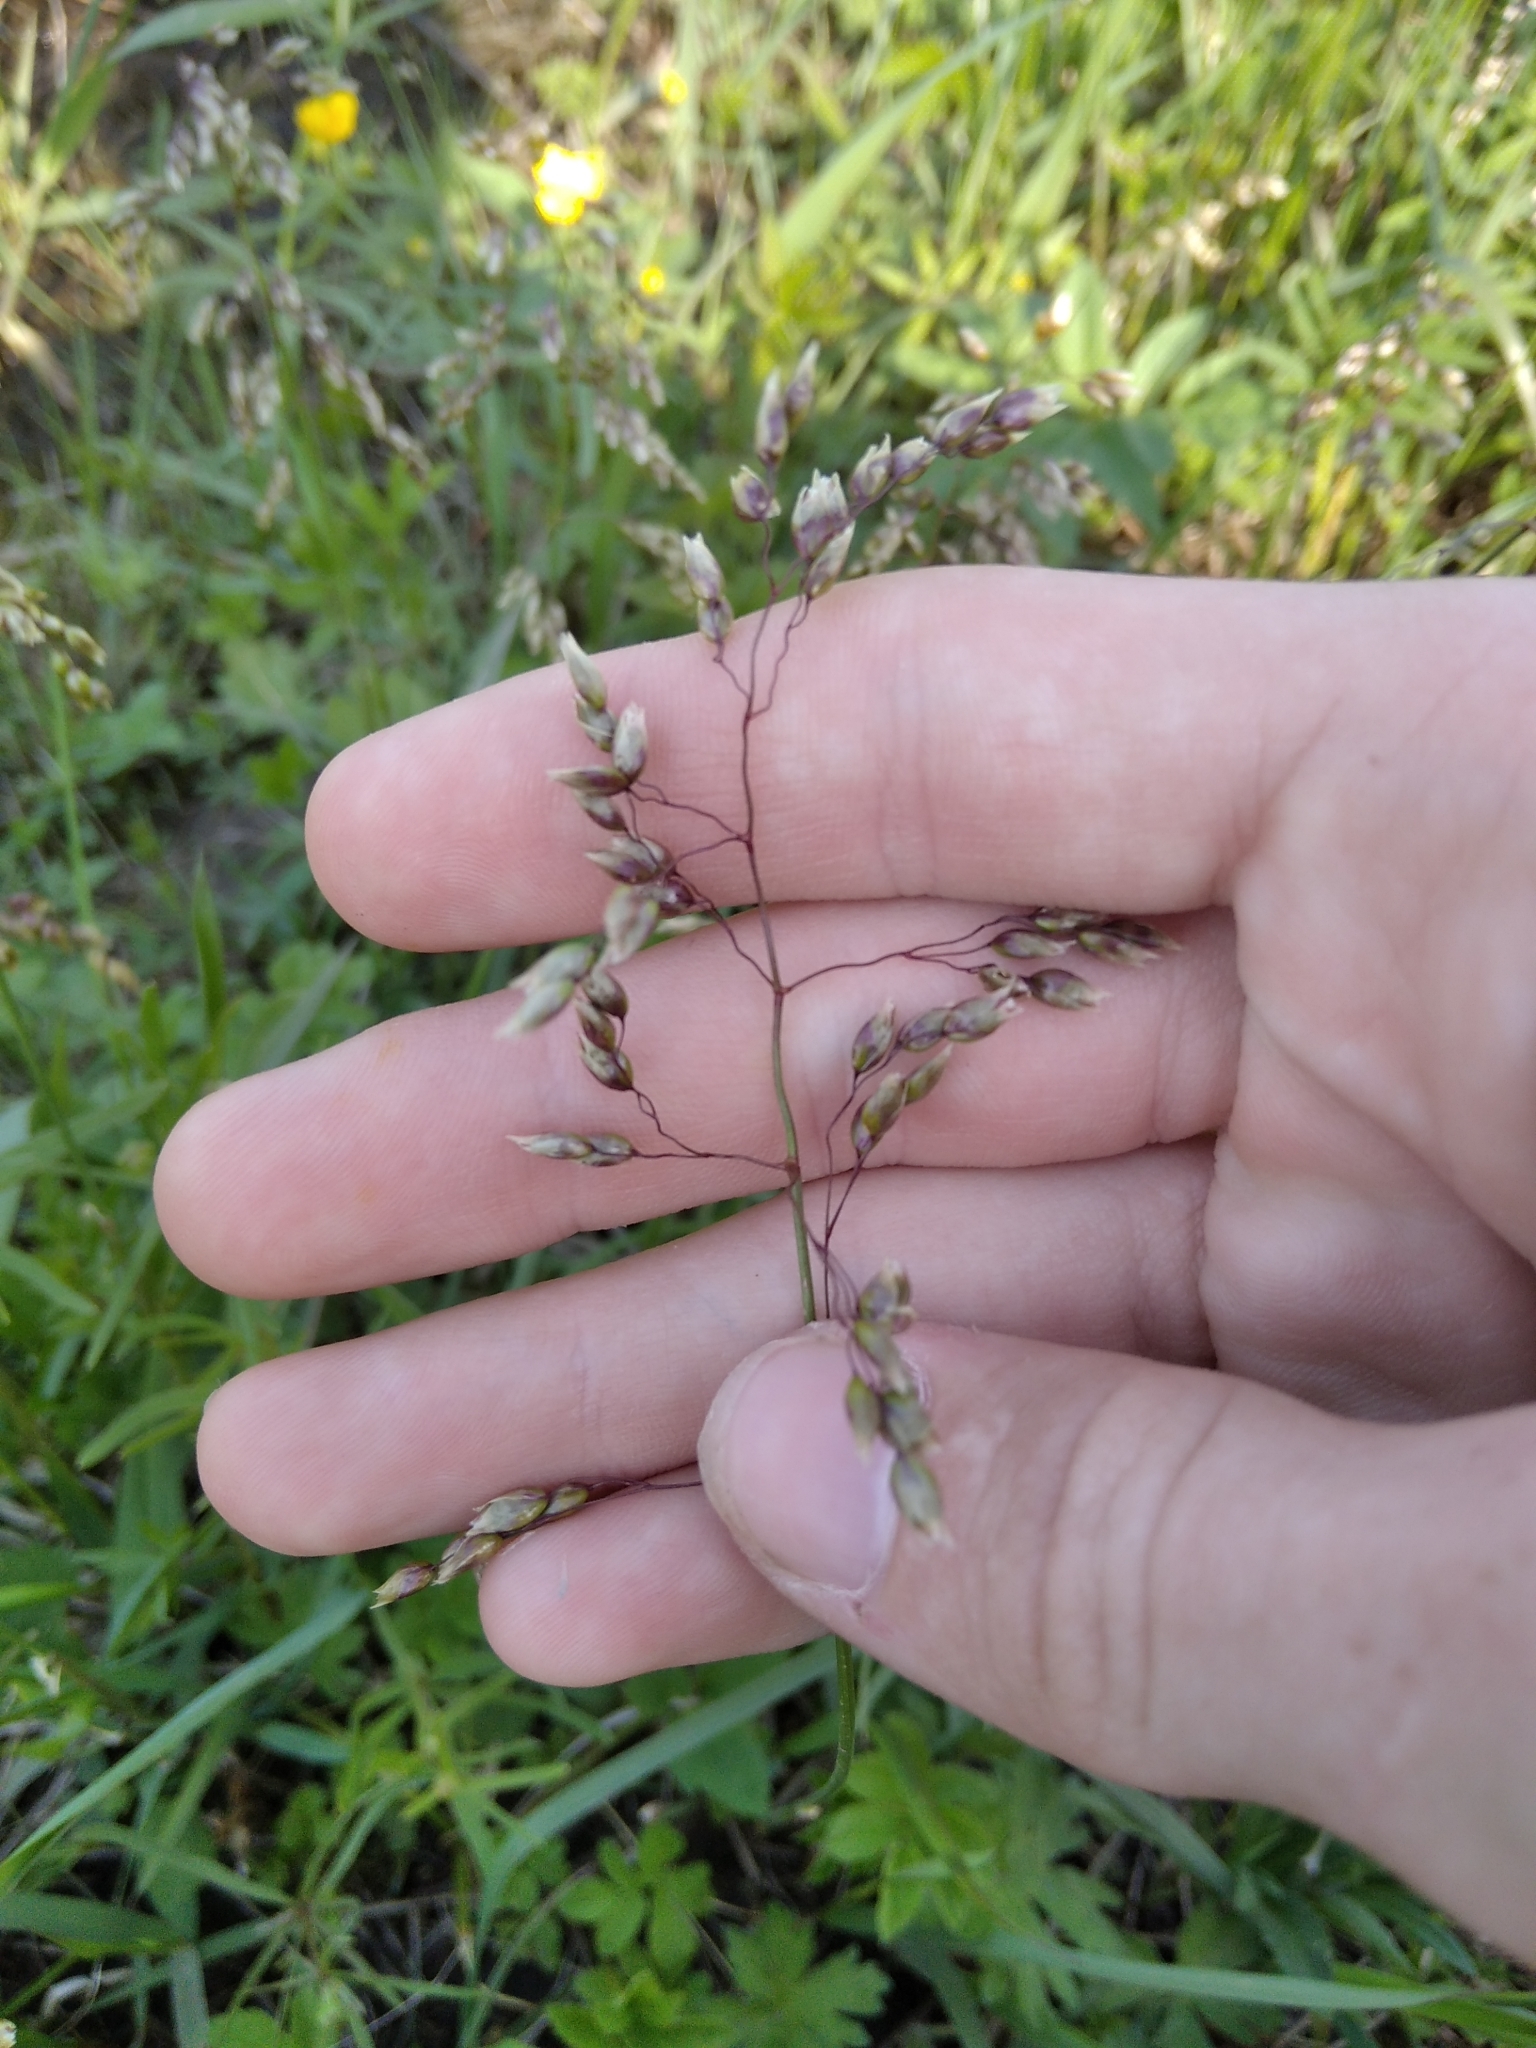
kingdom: Plantae
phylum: Tracheophyta
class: Liliopsida
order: Poales
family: Poaceae
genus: Anthoxanthum
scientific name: Anthoxanthum nitens
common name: Holy grass
